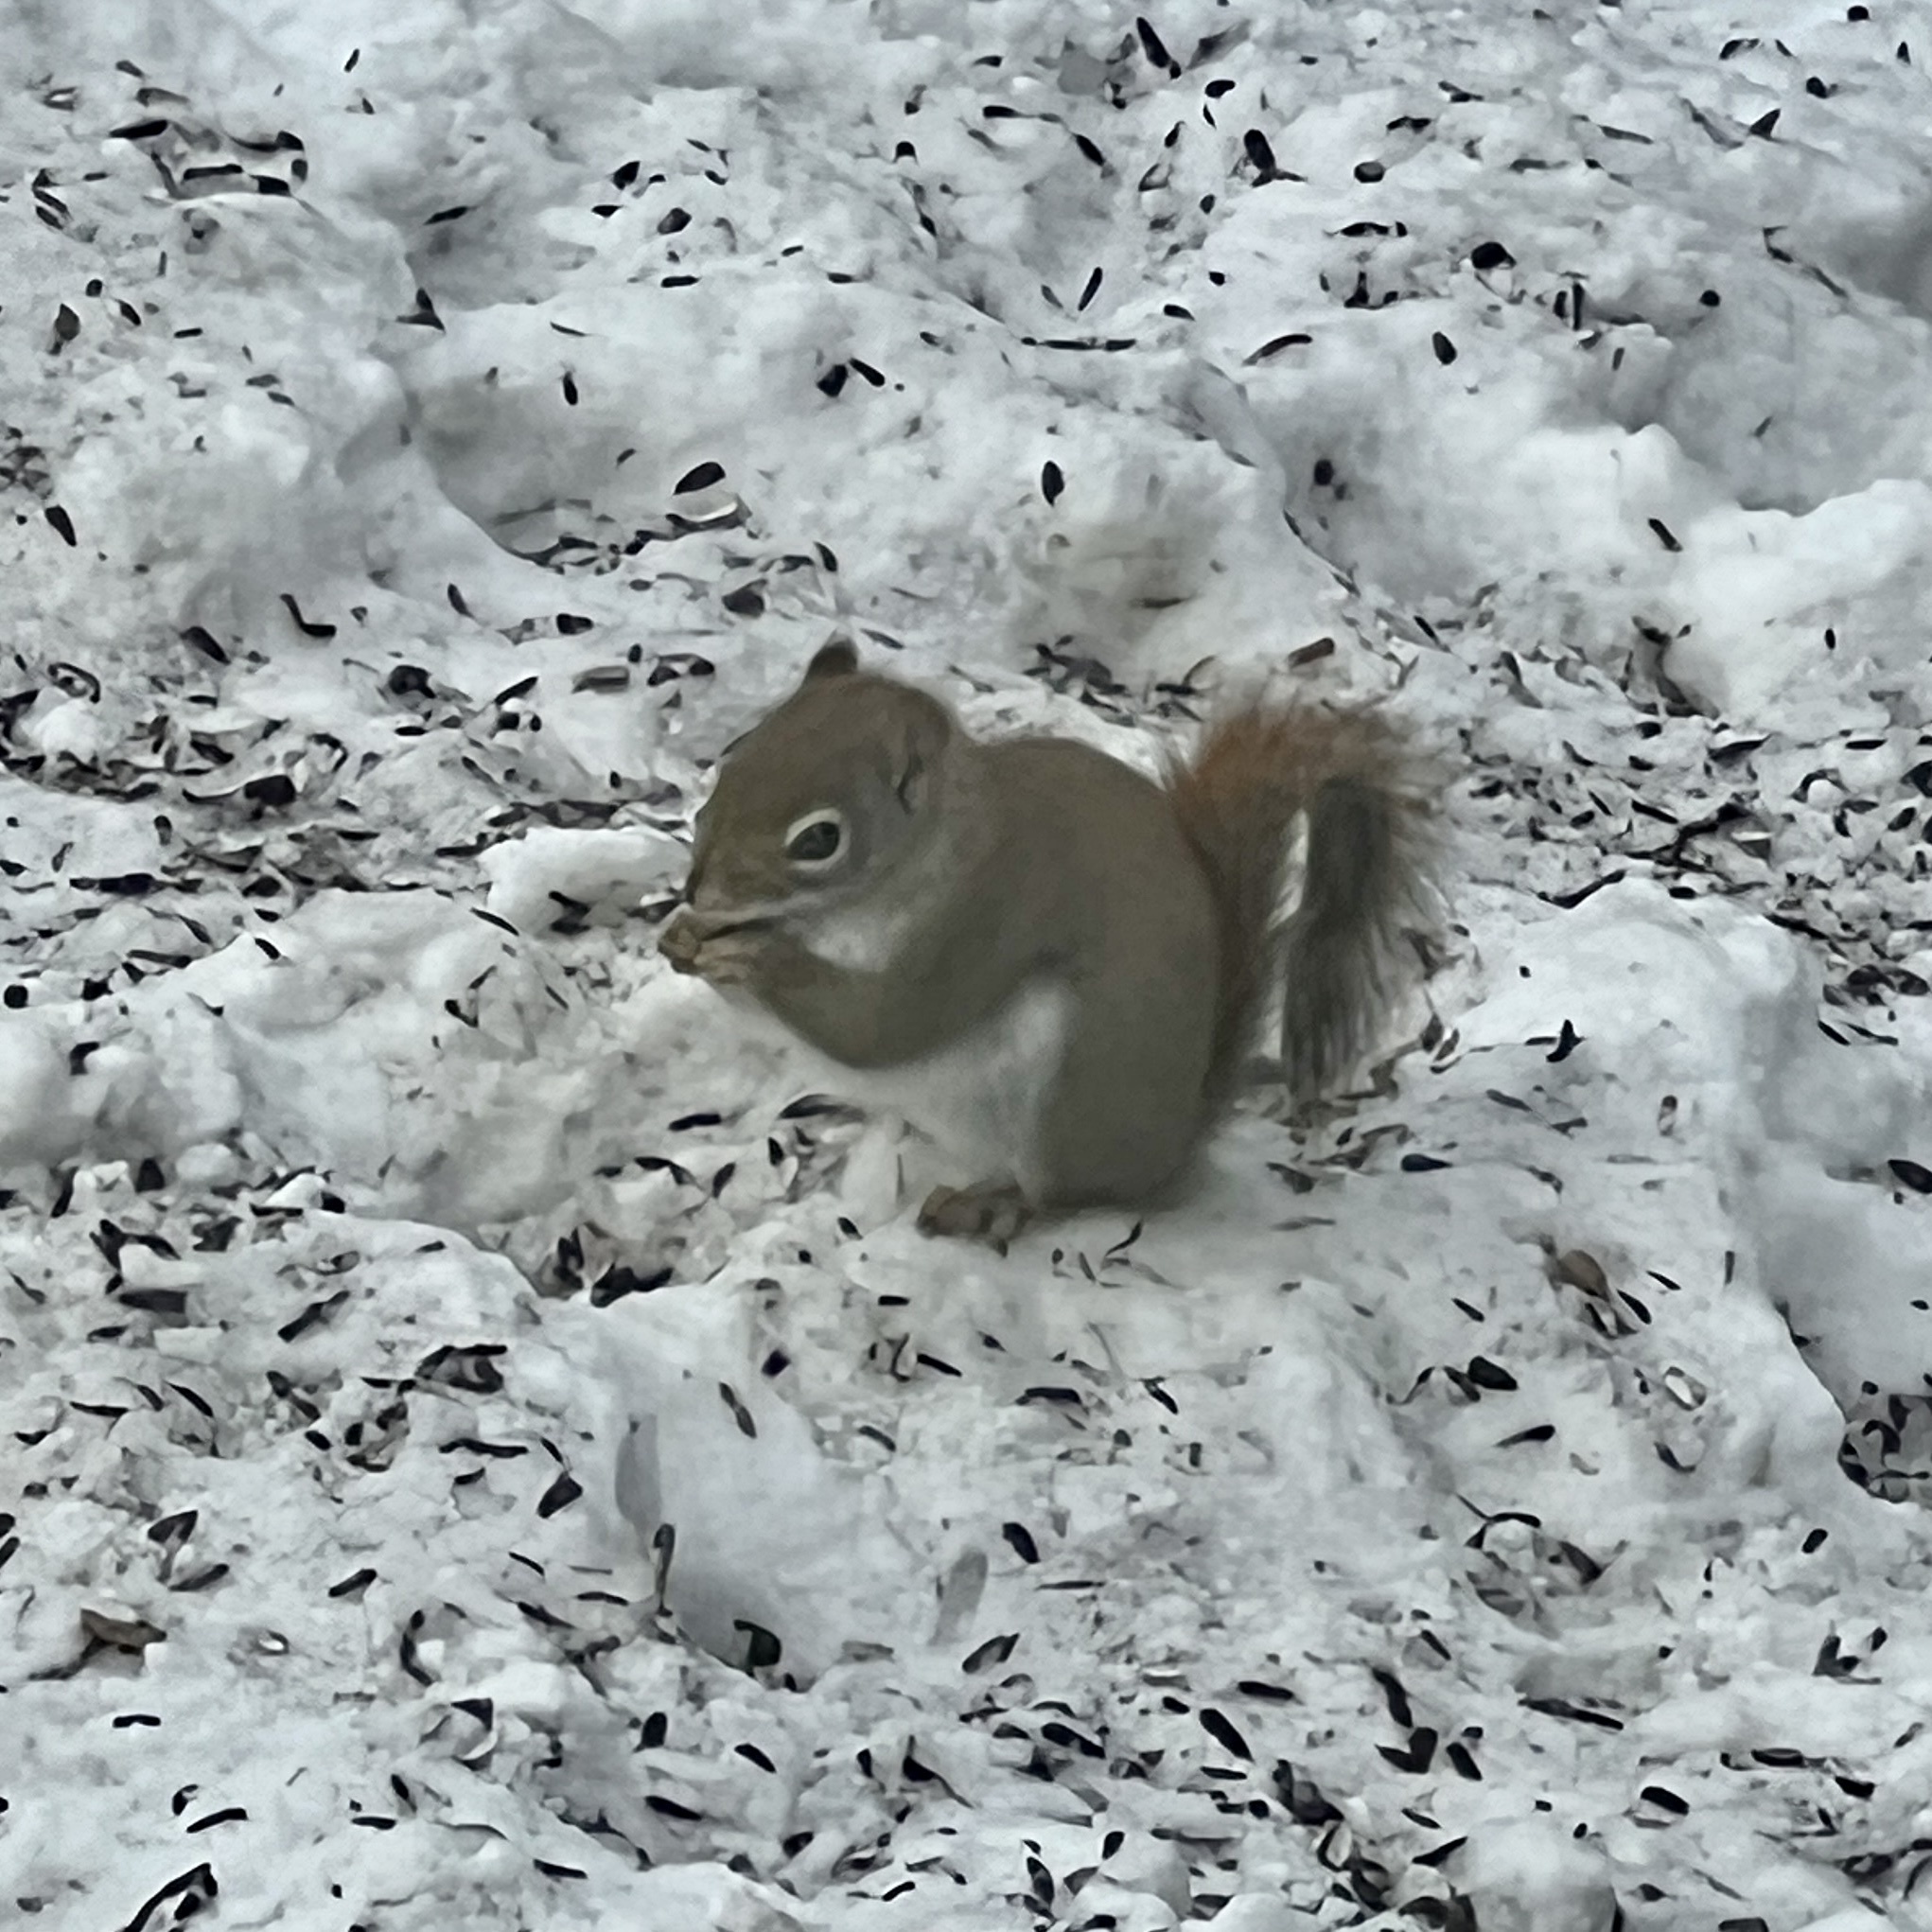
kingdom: Animalia
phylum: Chordata
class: Mammalia
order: Rodentia
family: Sciuridae
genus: Tamiasciurus
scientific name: Tamiasciurus hudsonicus
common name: Red squirrel
